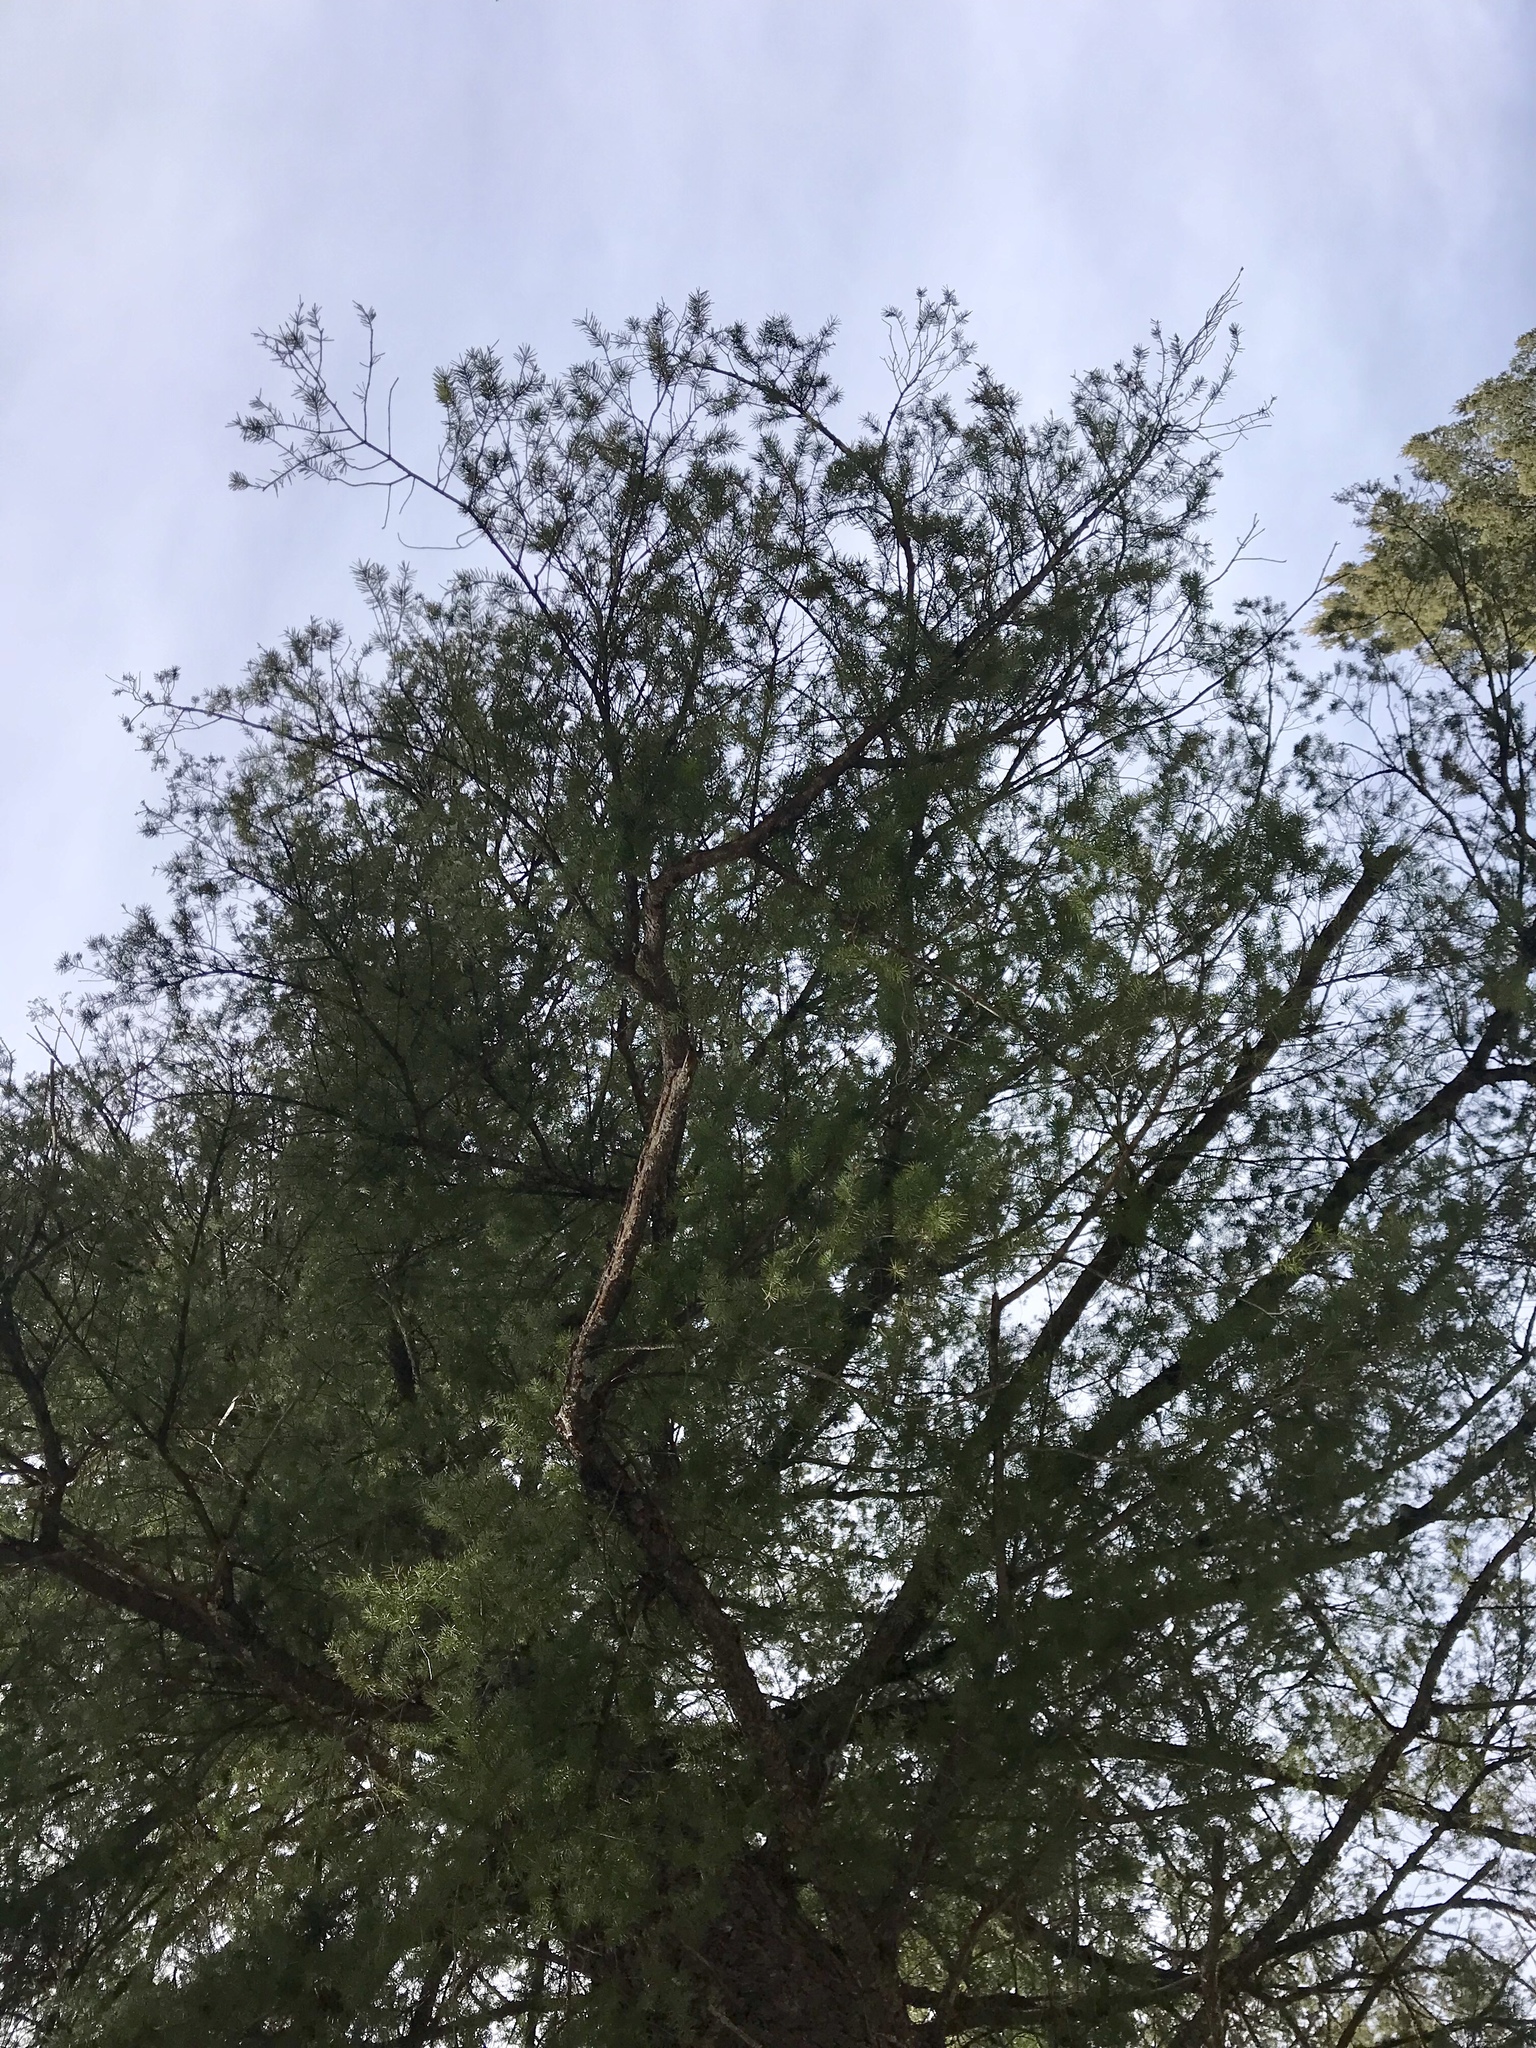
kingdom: Plantae
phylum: Tracheophyta
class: Pinopsida
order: Pinales
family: Pinaceae
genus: Pseudotsuga
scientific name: Pseudotsuga menziesii
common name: Douglas fir
